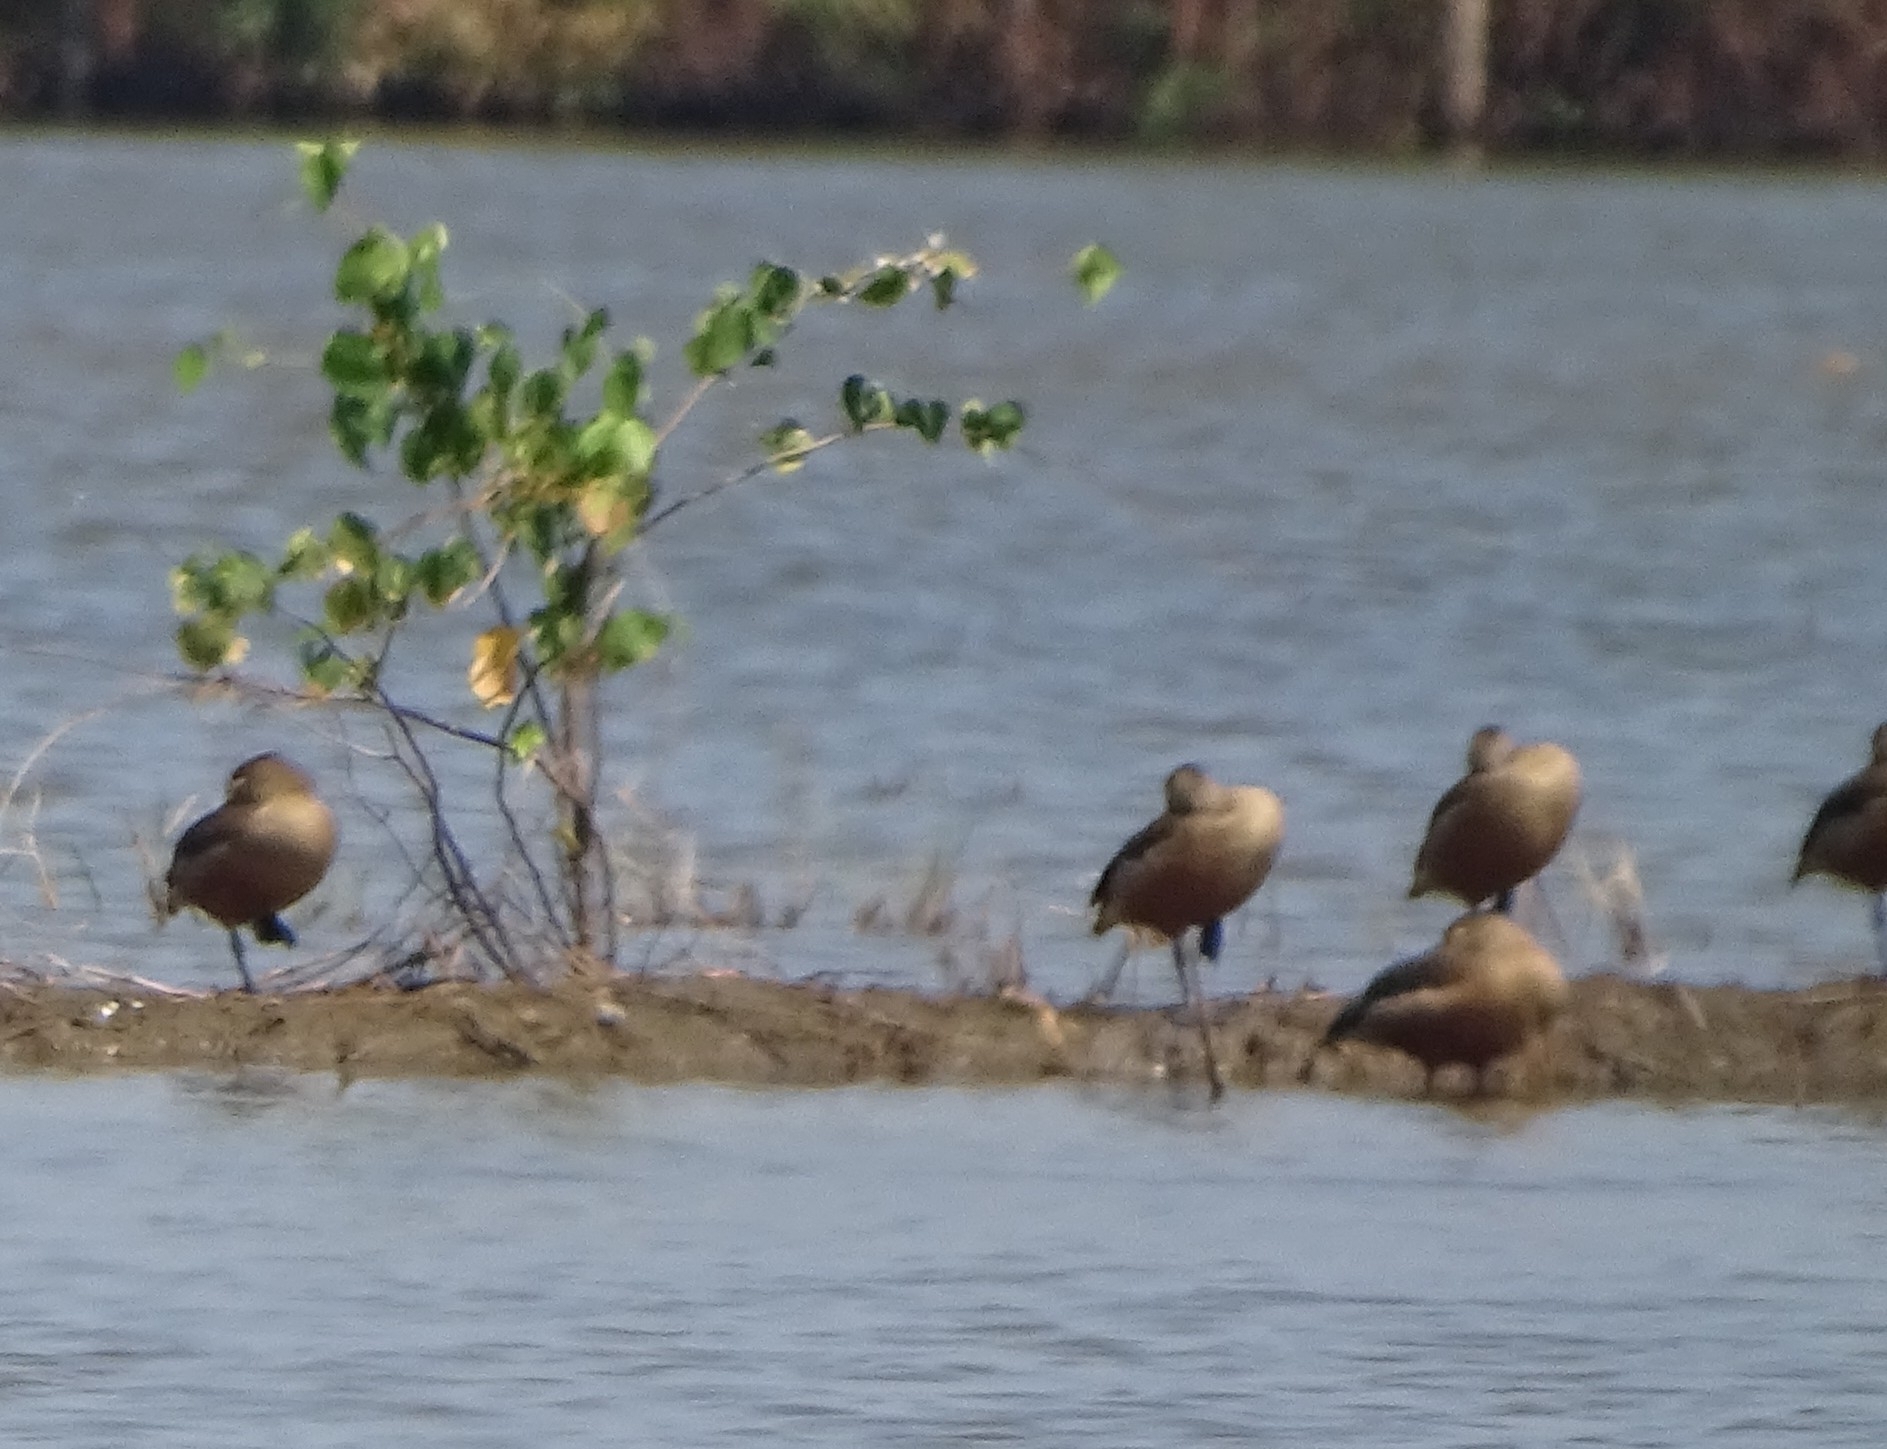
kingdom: Animalia
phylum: Chordata
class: Aves
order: Anseriformes
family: Anatidae
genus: Dendrocygna
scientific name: Dendrocygna javanica
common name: Lesser whistling-duck
